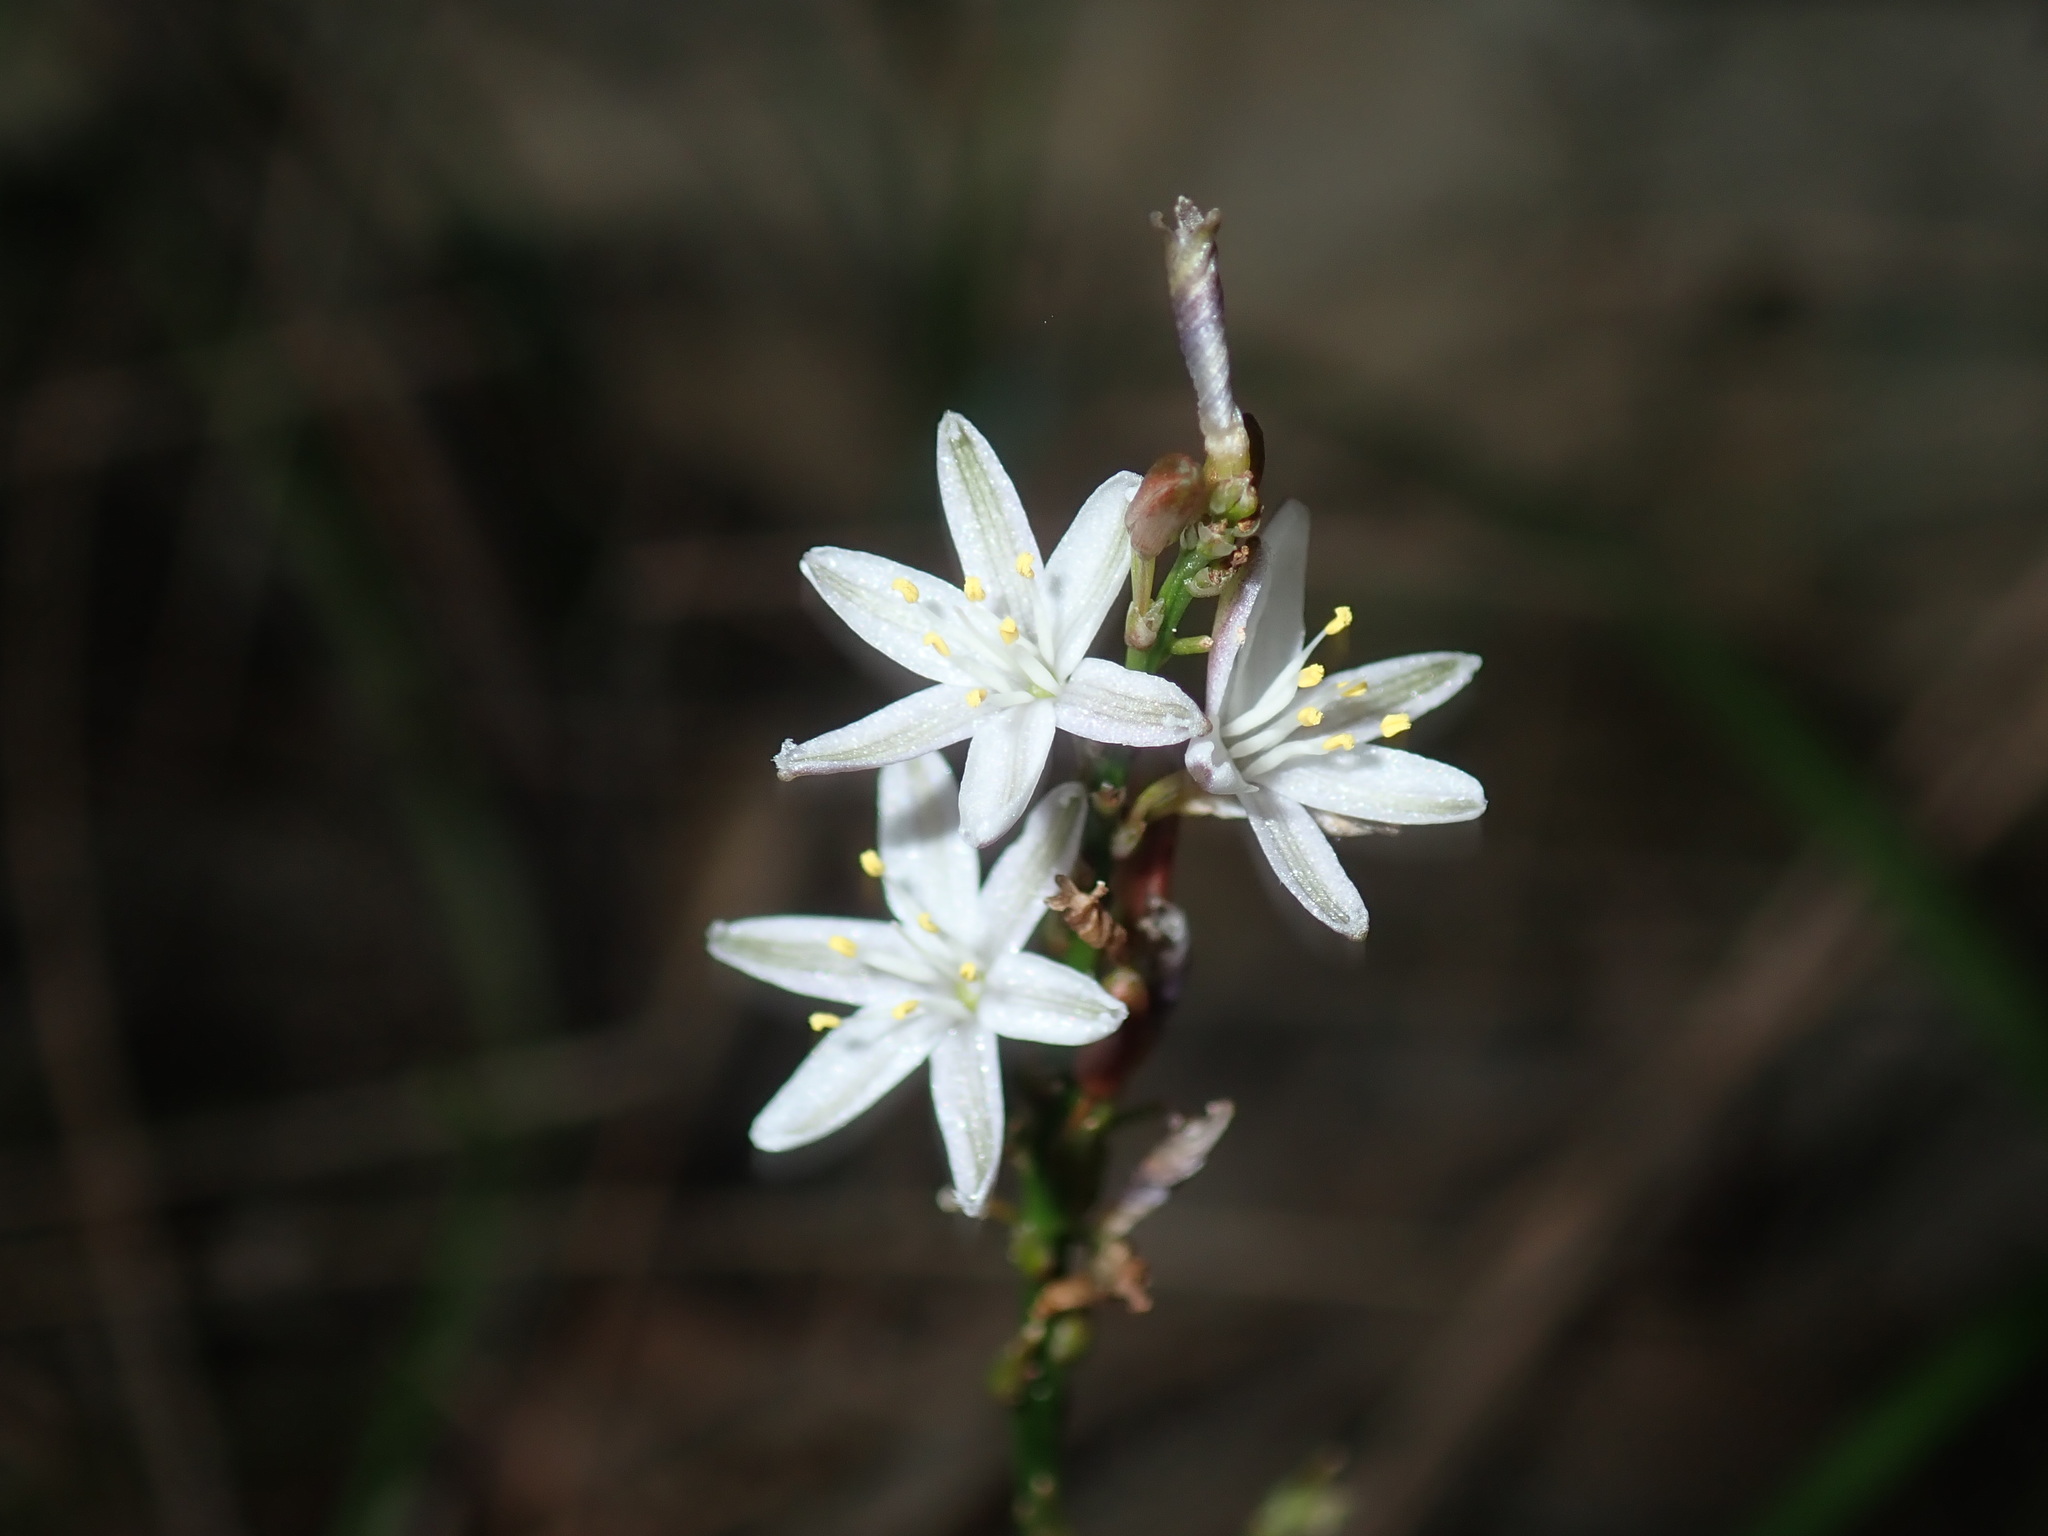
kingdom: Plantae
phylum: Tracheophyta
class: Liliopsida
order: Asparagales
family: Asphodelaceae
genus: Caesia
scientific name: Caesia parviflora
